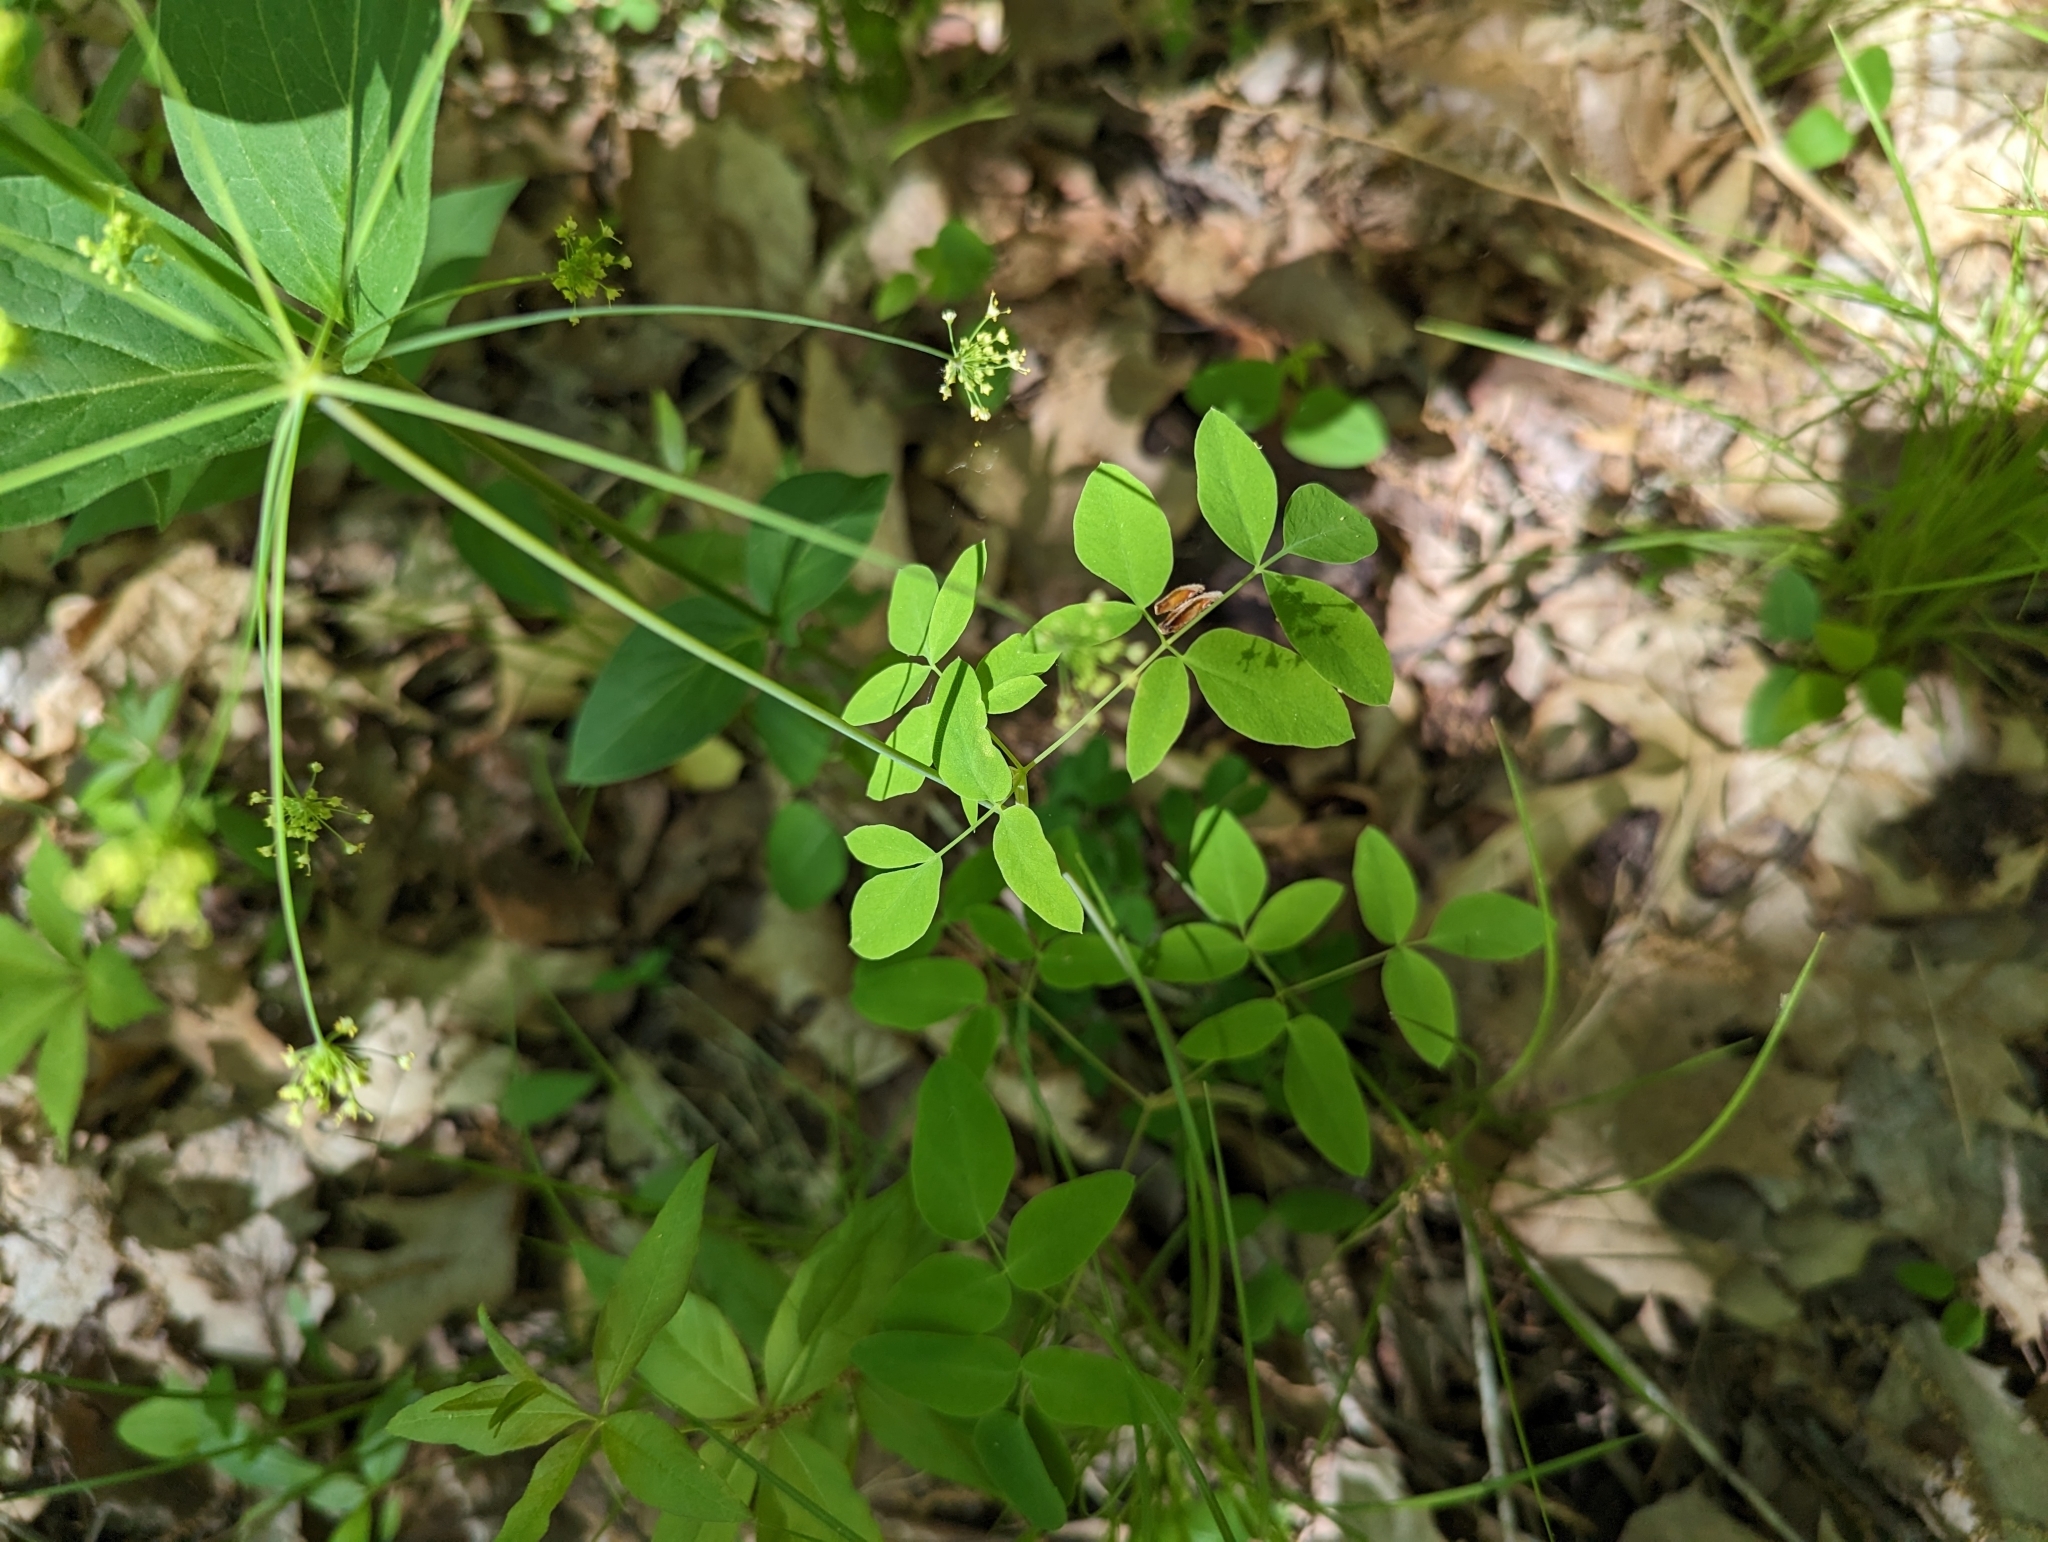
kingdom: Plantae
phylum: Tracheophyta
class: Magnoliopsida
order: Apiales
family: Apiaceae
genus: Taenidia
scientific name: Taenidia integerrima
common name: Golden alexander
